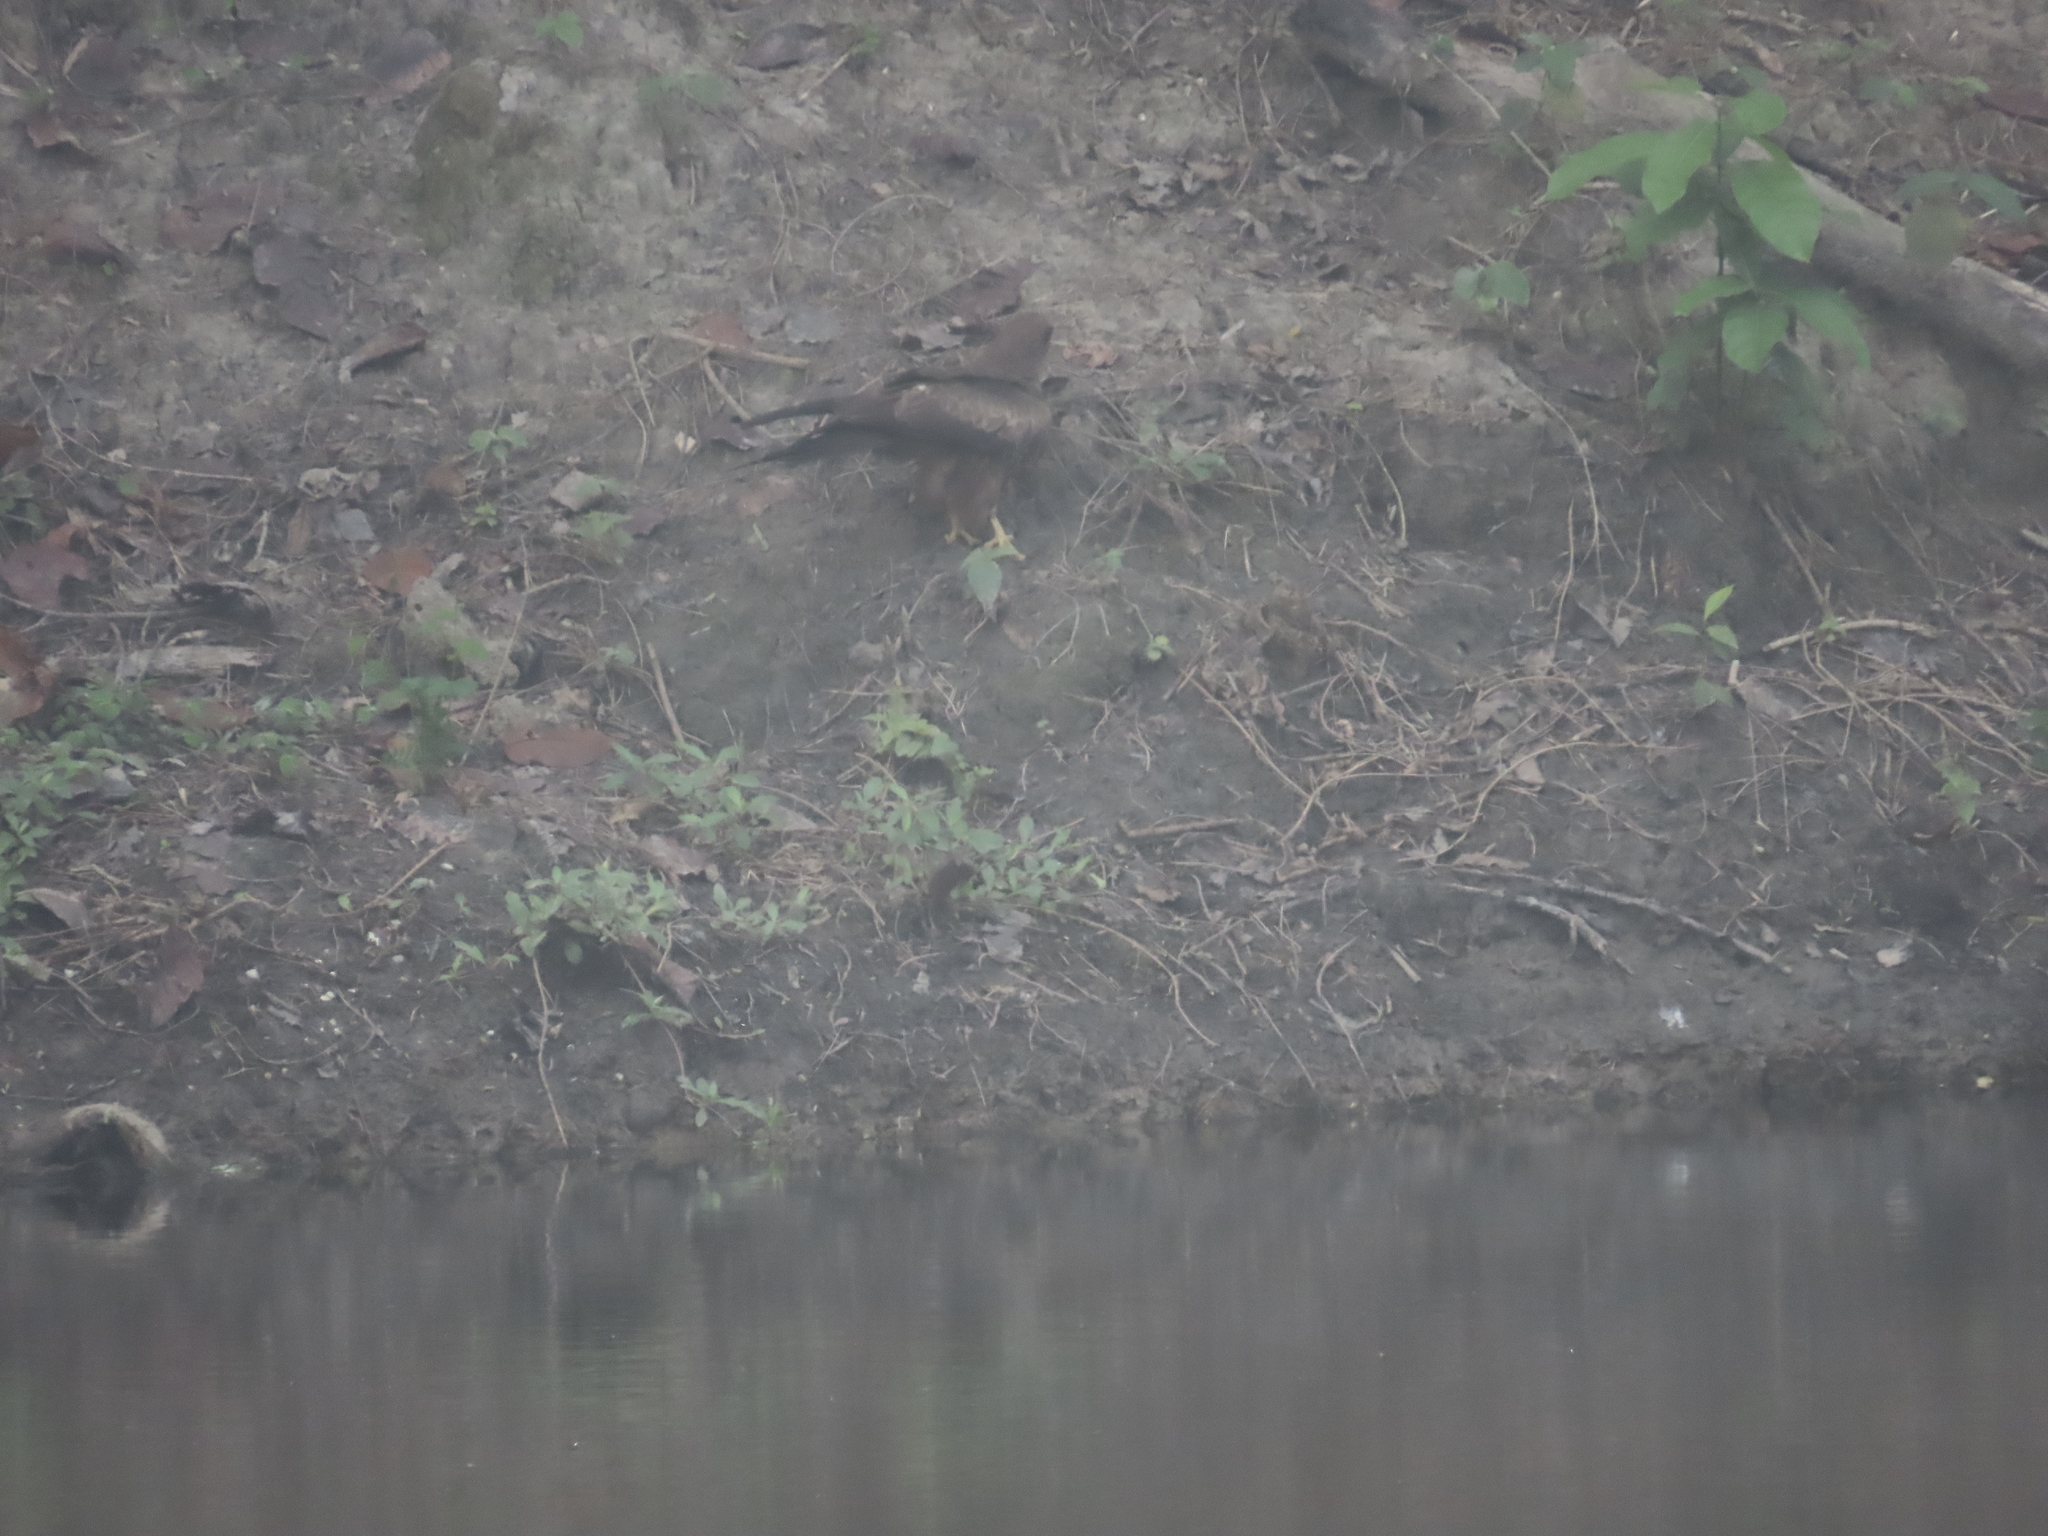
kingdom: Animalia
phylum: Chordata
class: Aves
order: Accipitriformes
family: Accipitridae
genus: Milvus
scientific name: Milvus migrans
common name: Black kite
